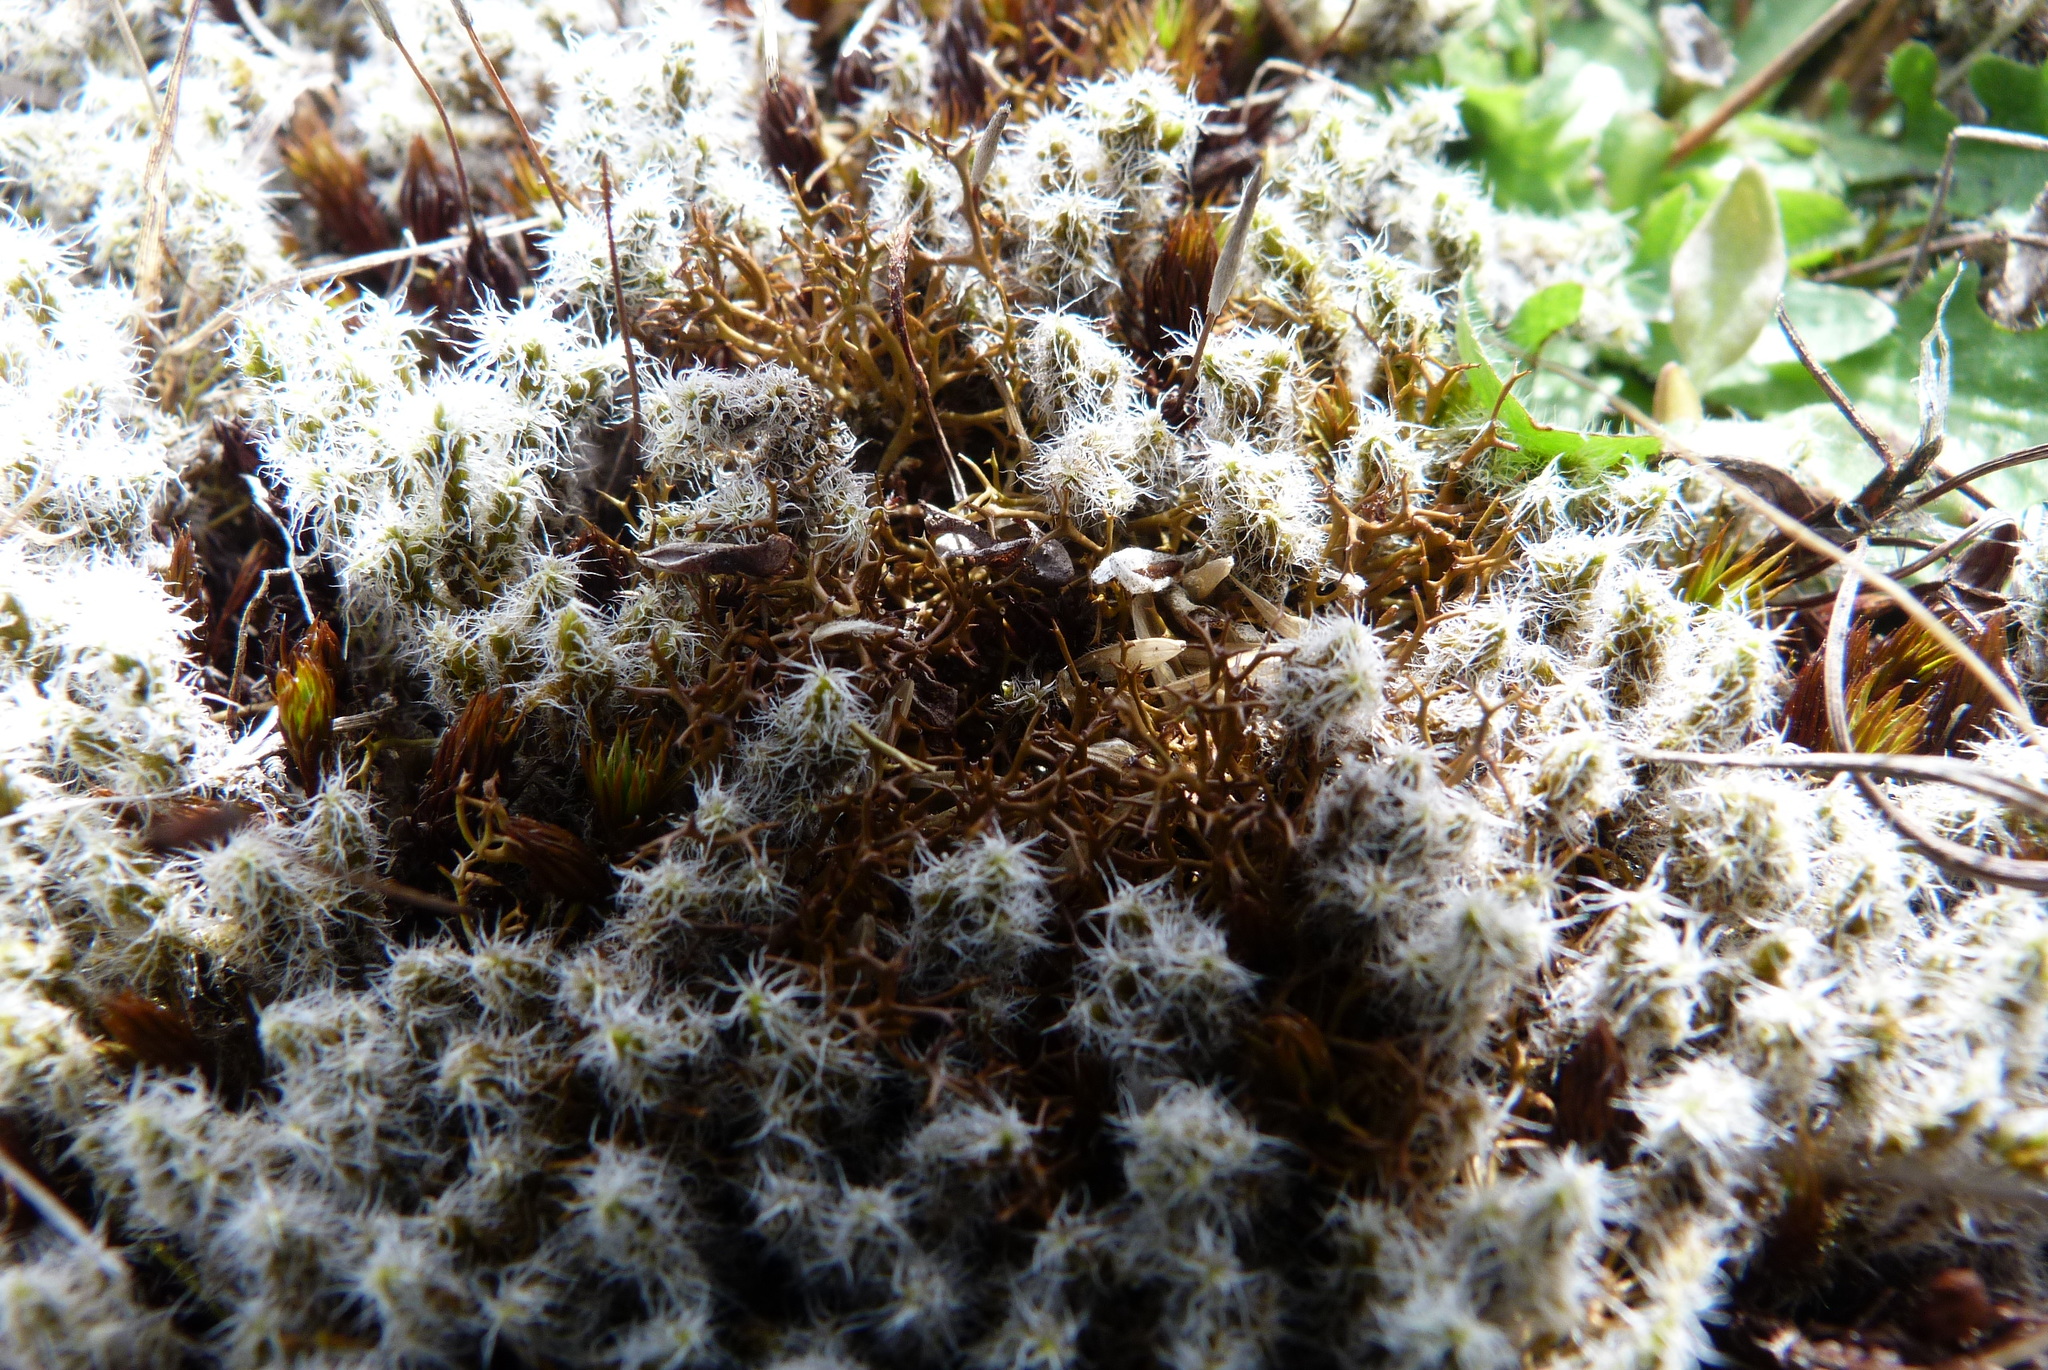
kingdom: Fungi
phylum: Ascomycota
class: Lecanoromycetes
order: Lecanorales
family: Cladoniaceae
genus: Cladia
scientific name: Cladia aggregata
